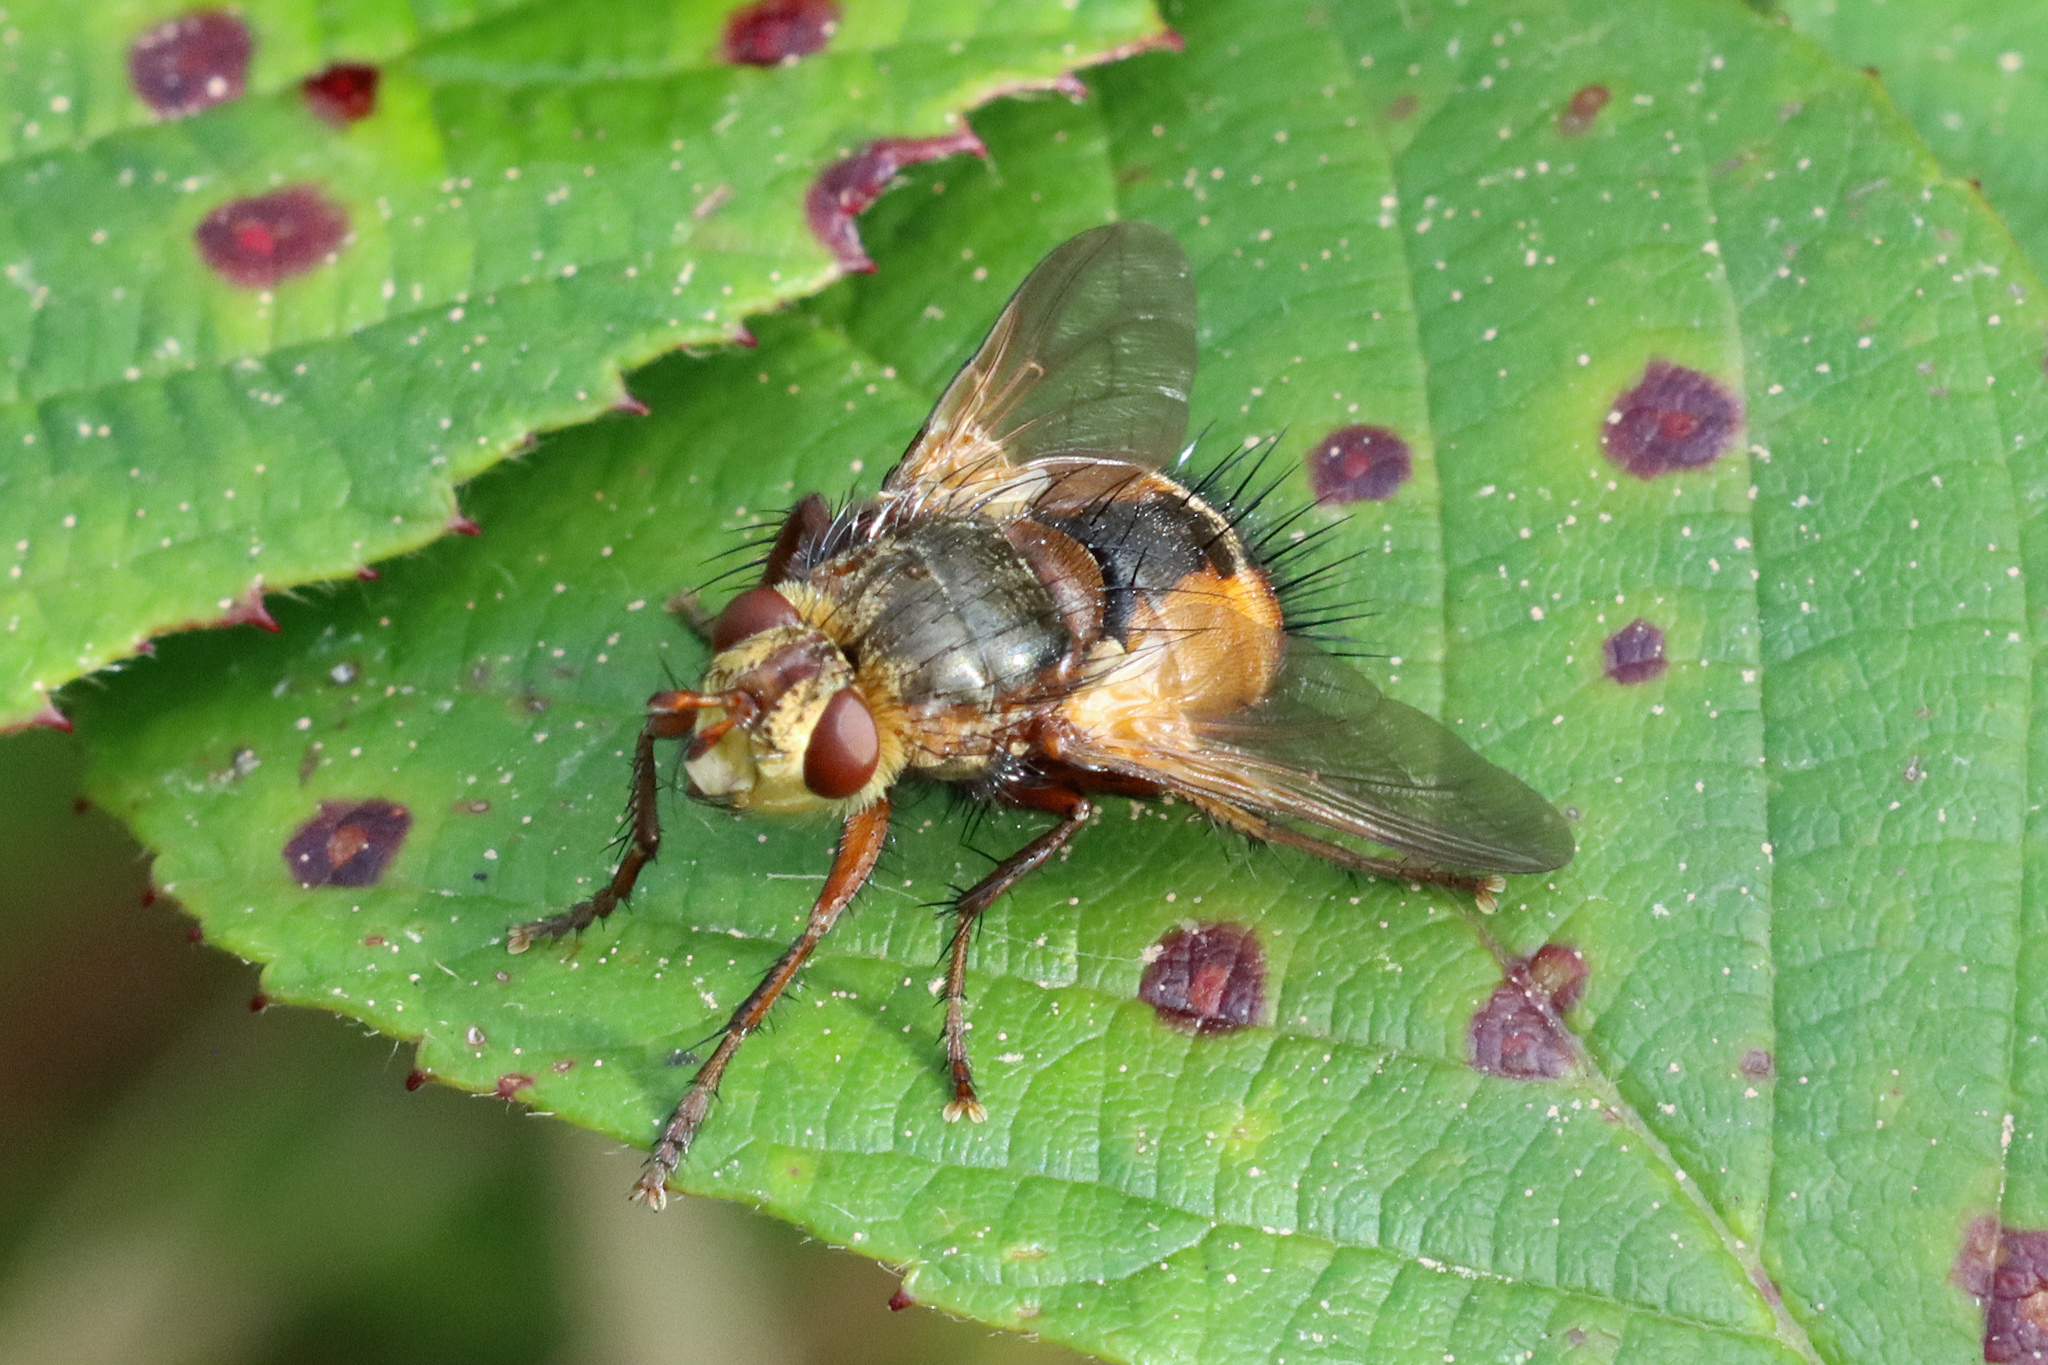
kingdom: Animalia
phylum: Arthropoda
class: Insecta
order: Diptera
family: Tachinidae
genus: Tachina
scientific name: Tachina fera
